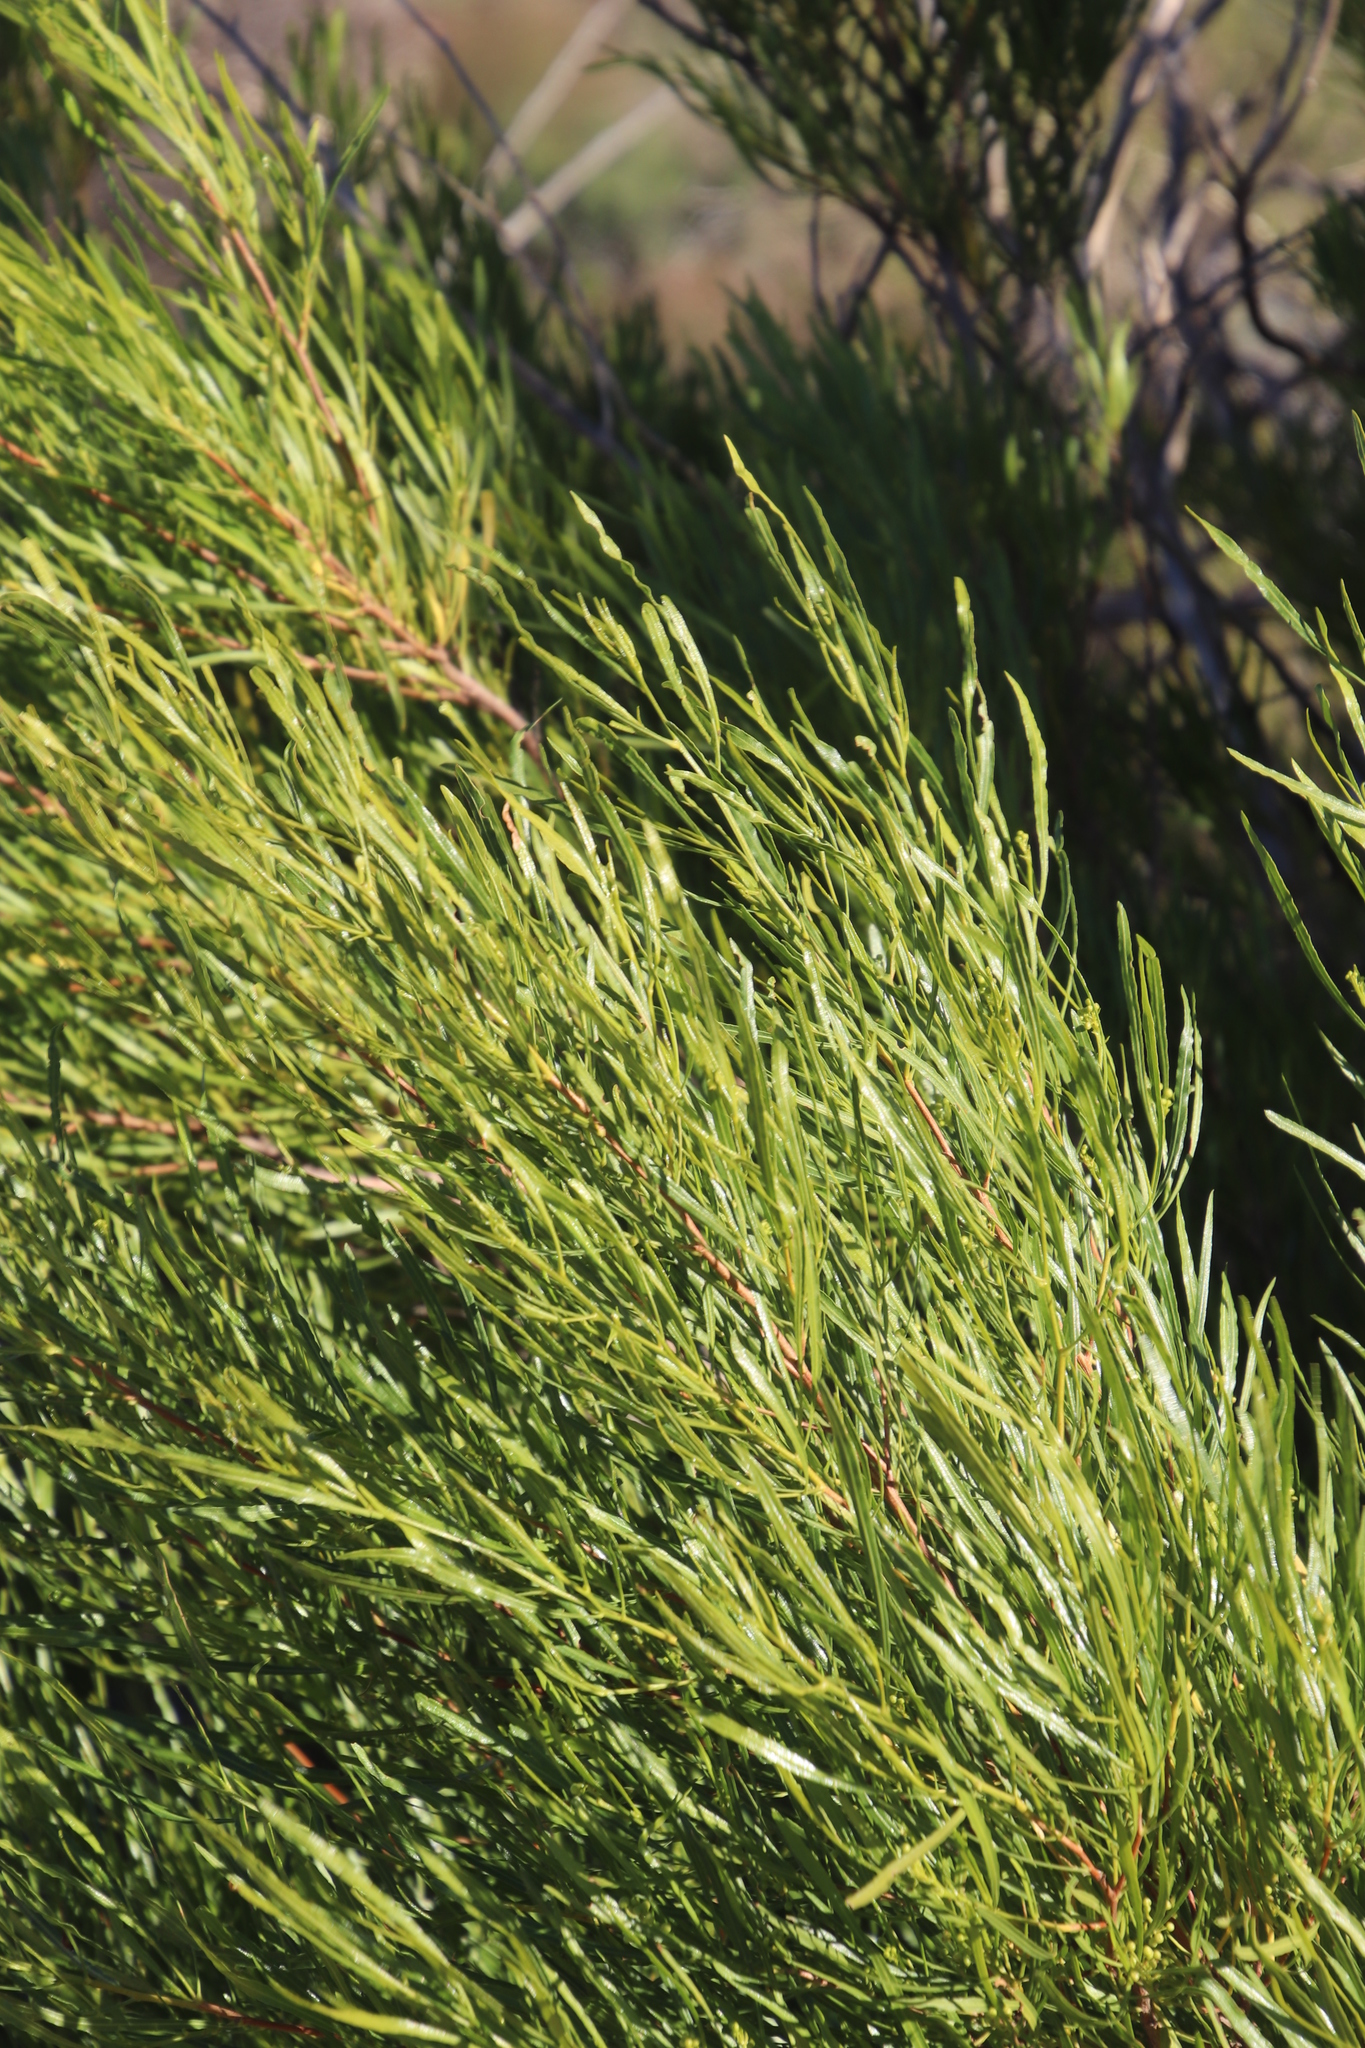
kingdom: Plantae
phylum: Tracheophyta
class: Magnoliopsida
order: Sapindales
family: Sapindaceae
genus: Dodonaea
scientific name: Dodonaea viscosa
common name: Hopbush
